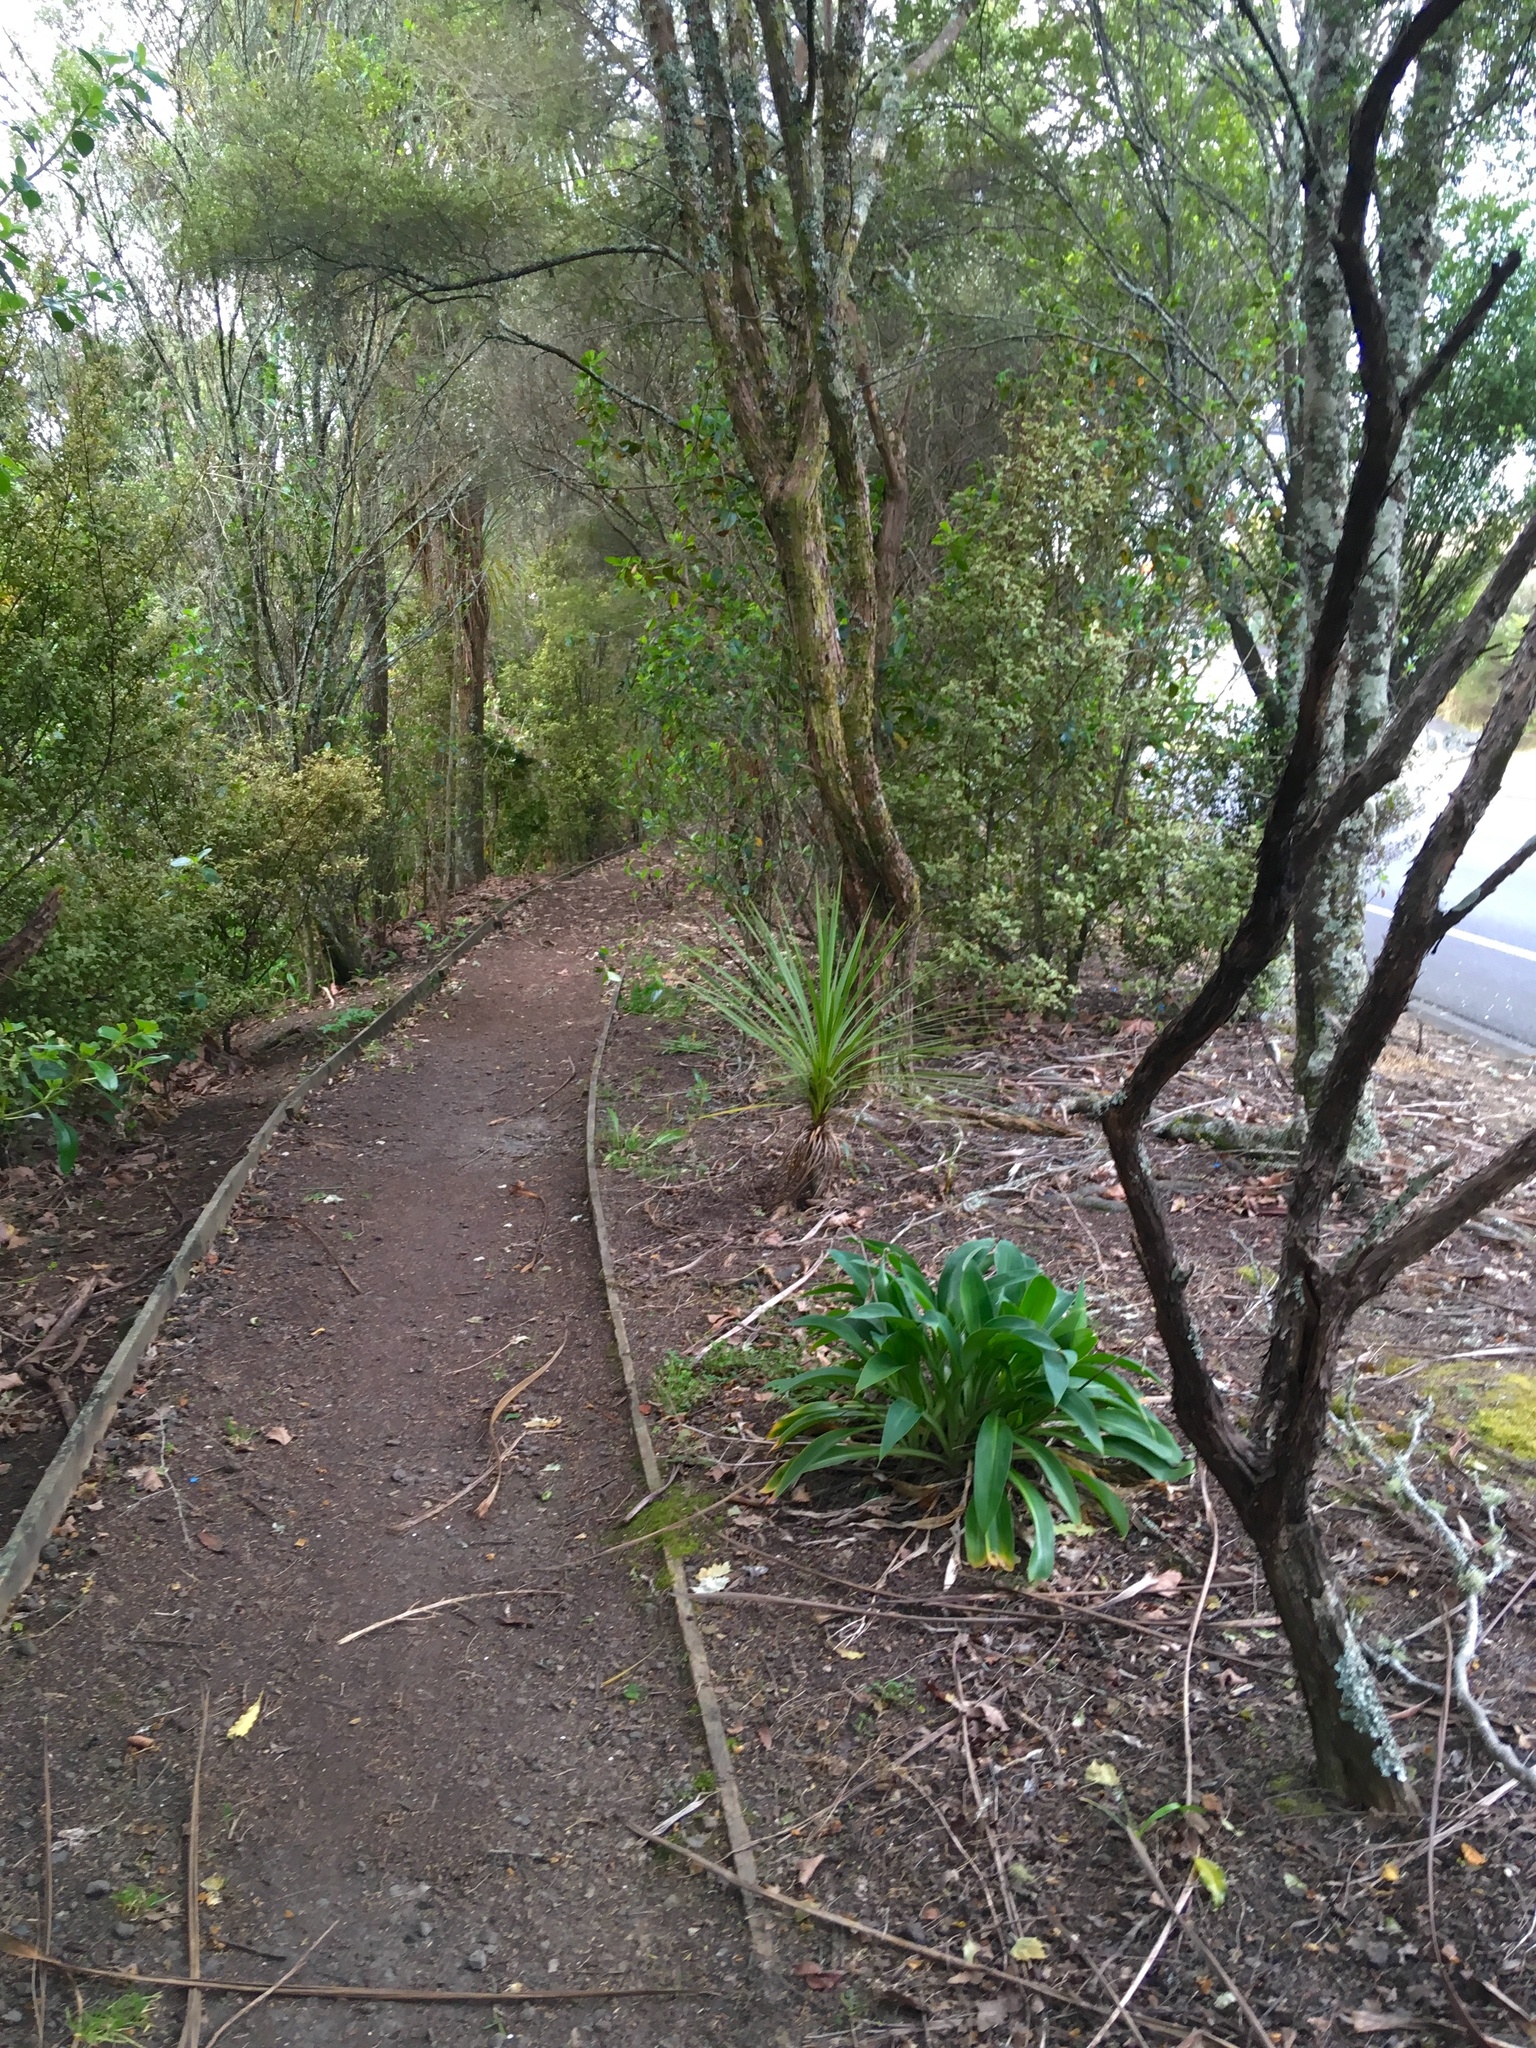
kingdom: Plantae
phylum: Tracheophyta
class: Liliopsida
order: Asparagales
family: Asparagaceae
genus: Cordyline
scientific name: Cordyline australis
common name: Cabbage-palm
